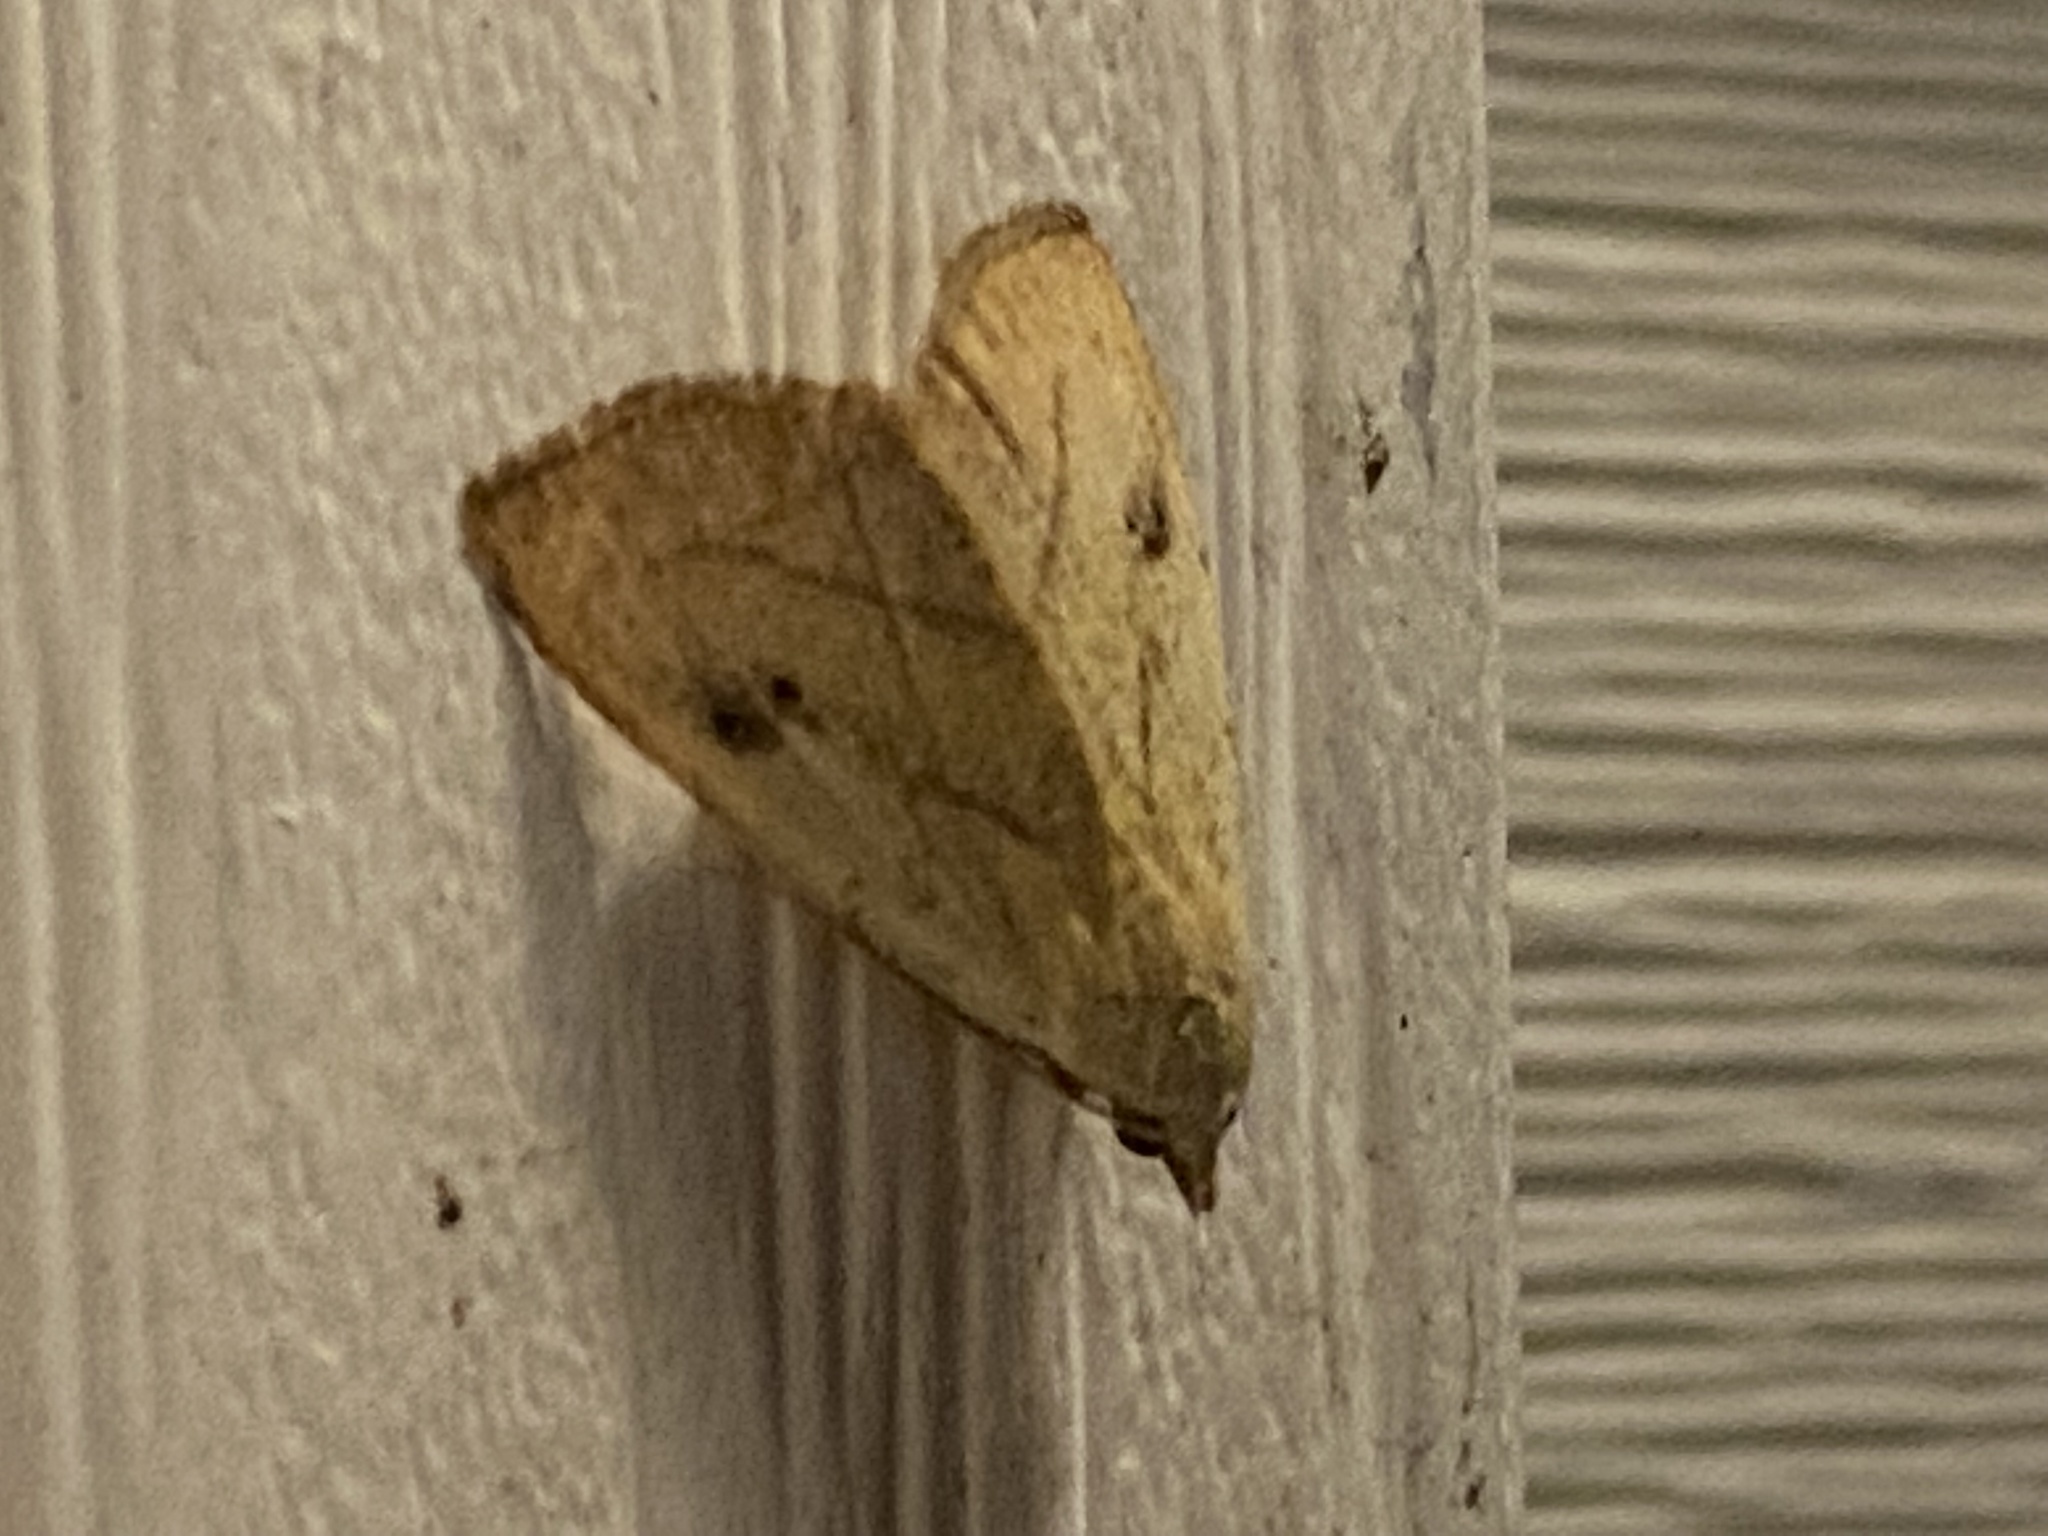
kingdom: Animalia
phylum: Arthropoda
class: Insecta
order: Lepidoptera
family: Erebidae
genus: Rivula
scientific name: Rivula propinqualis
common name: Spotted grass moth
